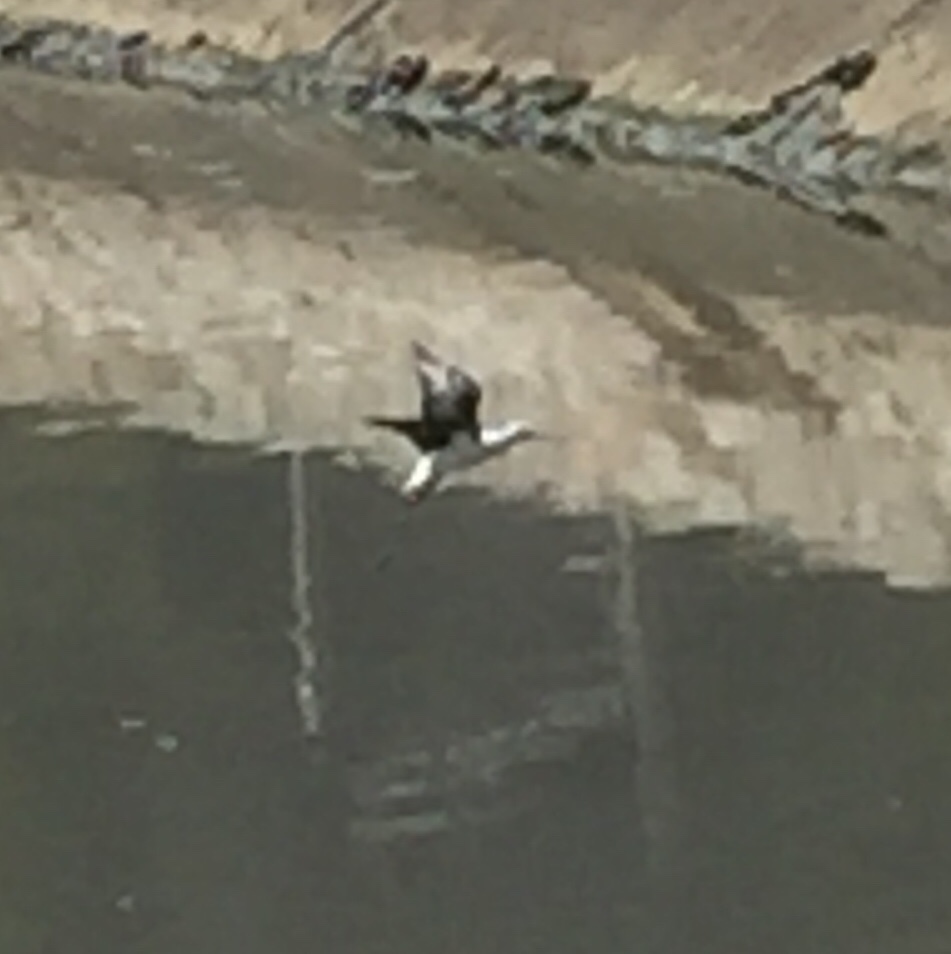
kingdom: Animalia
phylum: Chordata
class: Aves
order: Charadriiformes
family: Recurvirostridae
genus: Himantopus
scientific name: Himantopus himantopus
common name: Black-winged stilt
